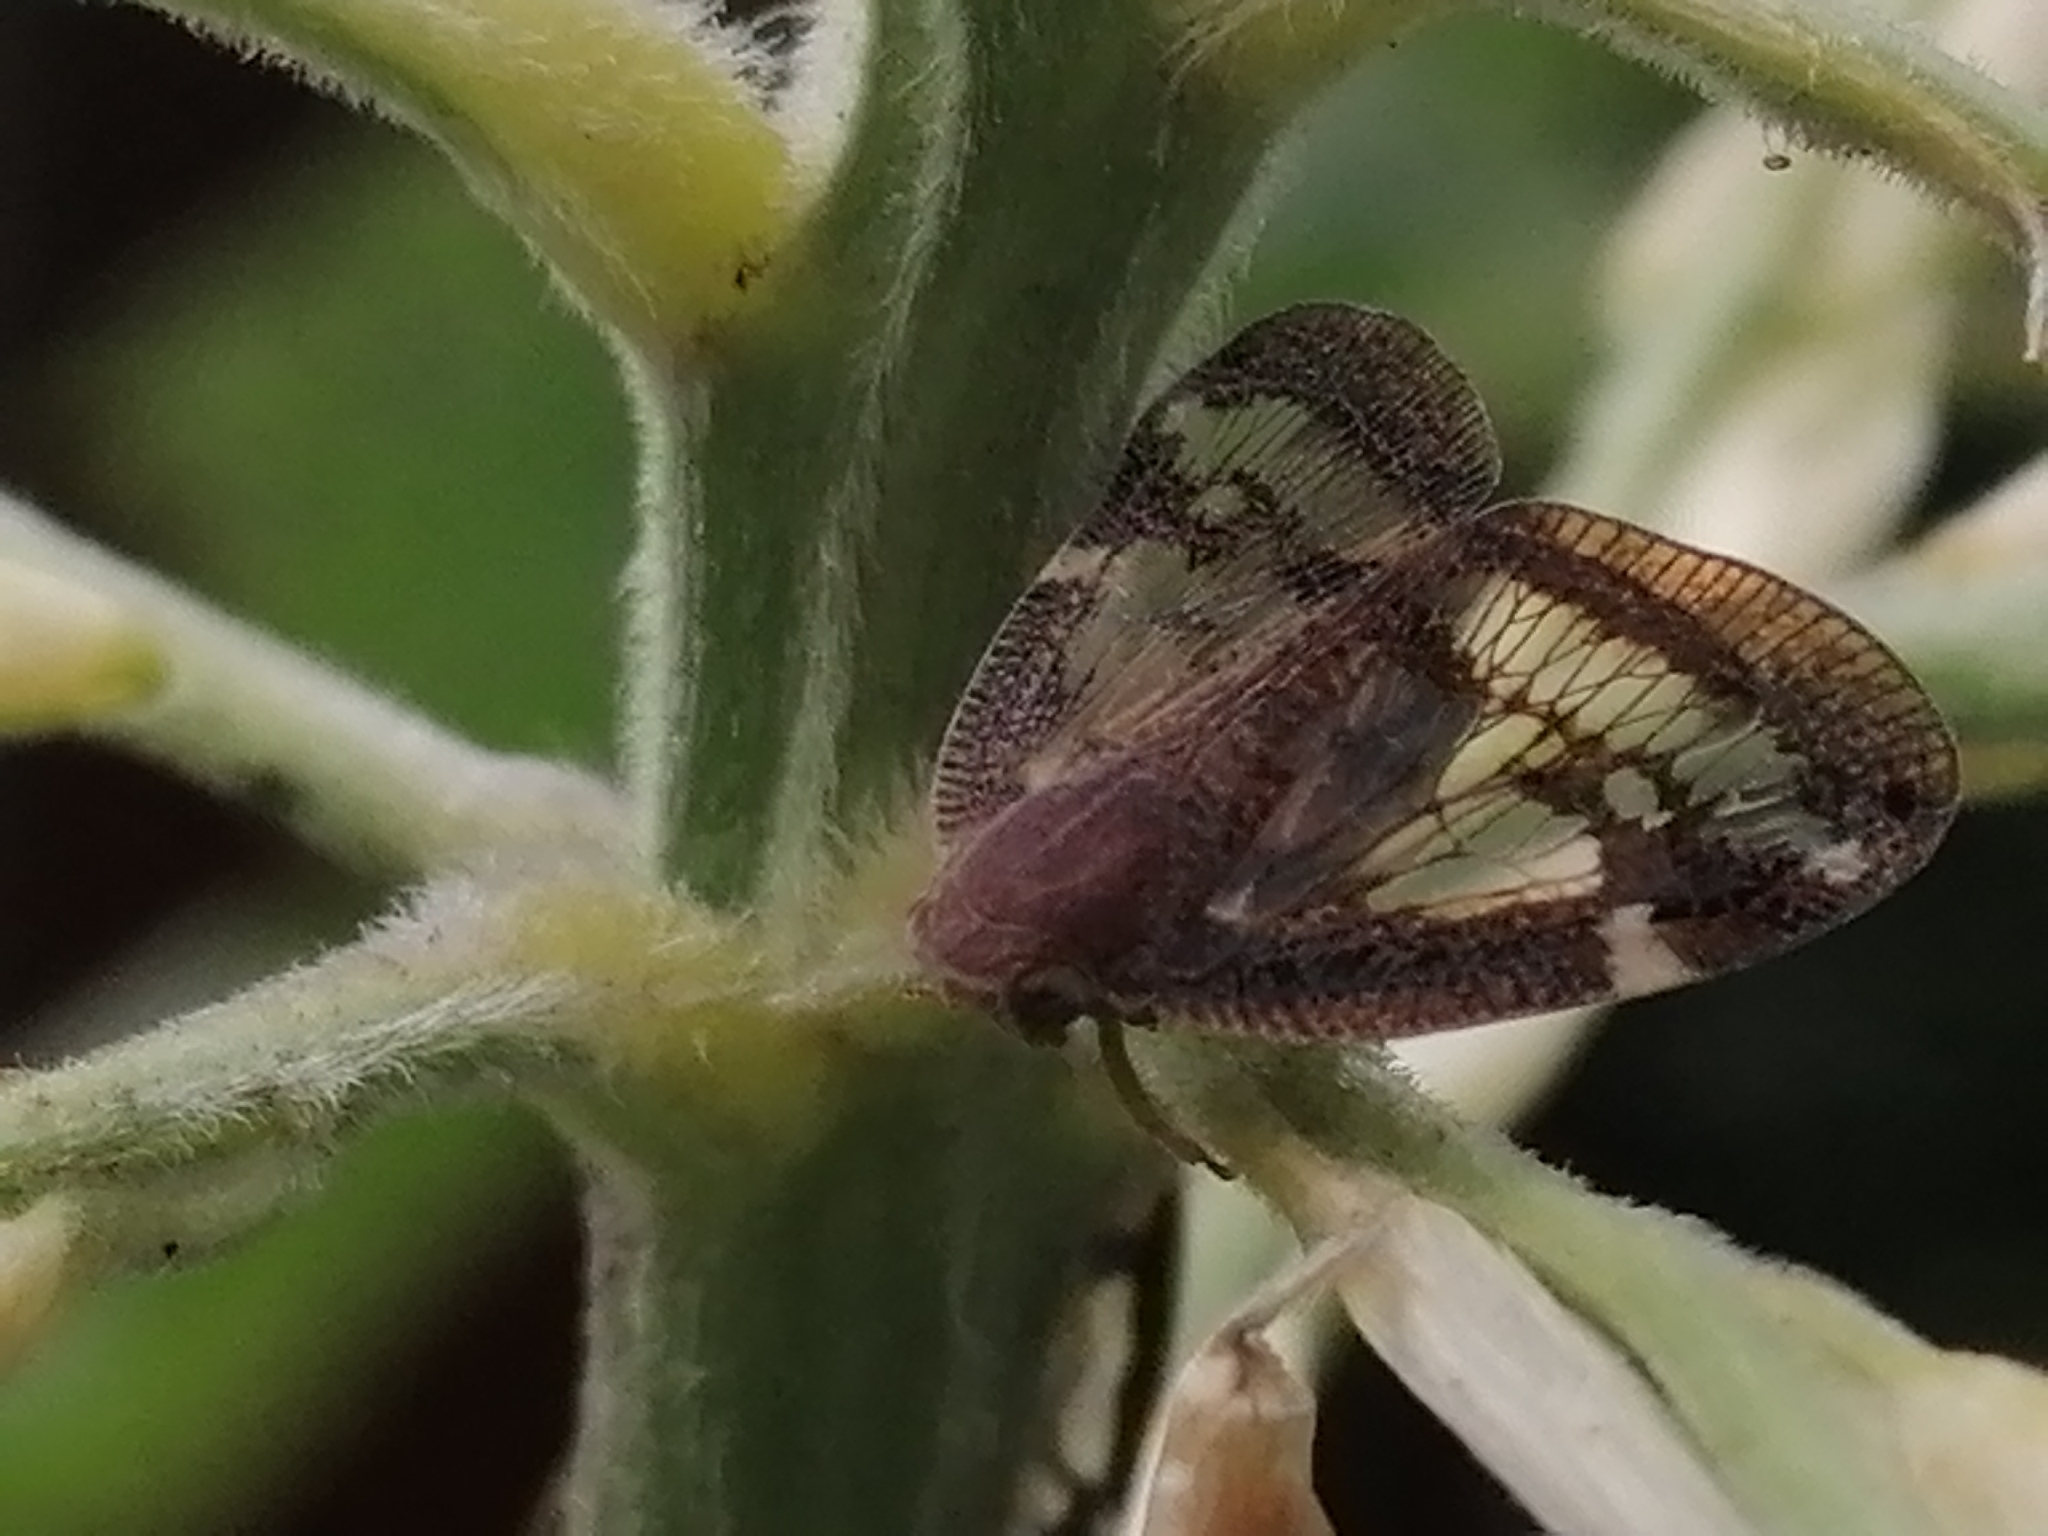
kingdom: Animalia
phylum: Arthropoda
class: Insecta
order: Hemiptera
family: Ricaniidae
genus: Scolypopa
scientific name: Scolypopa australis
